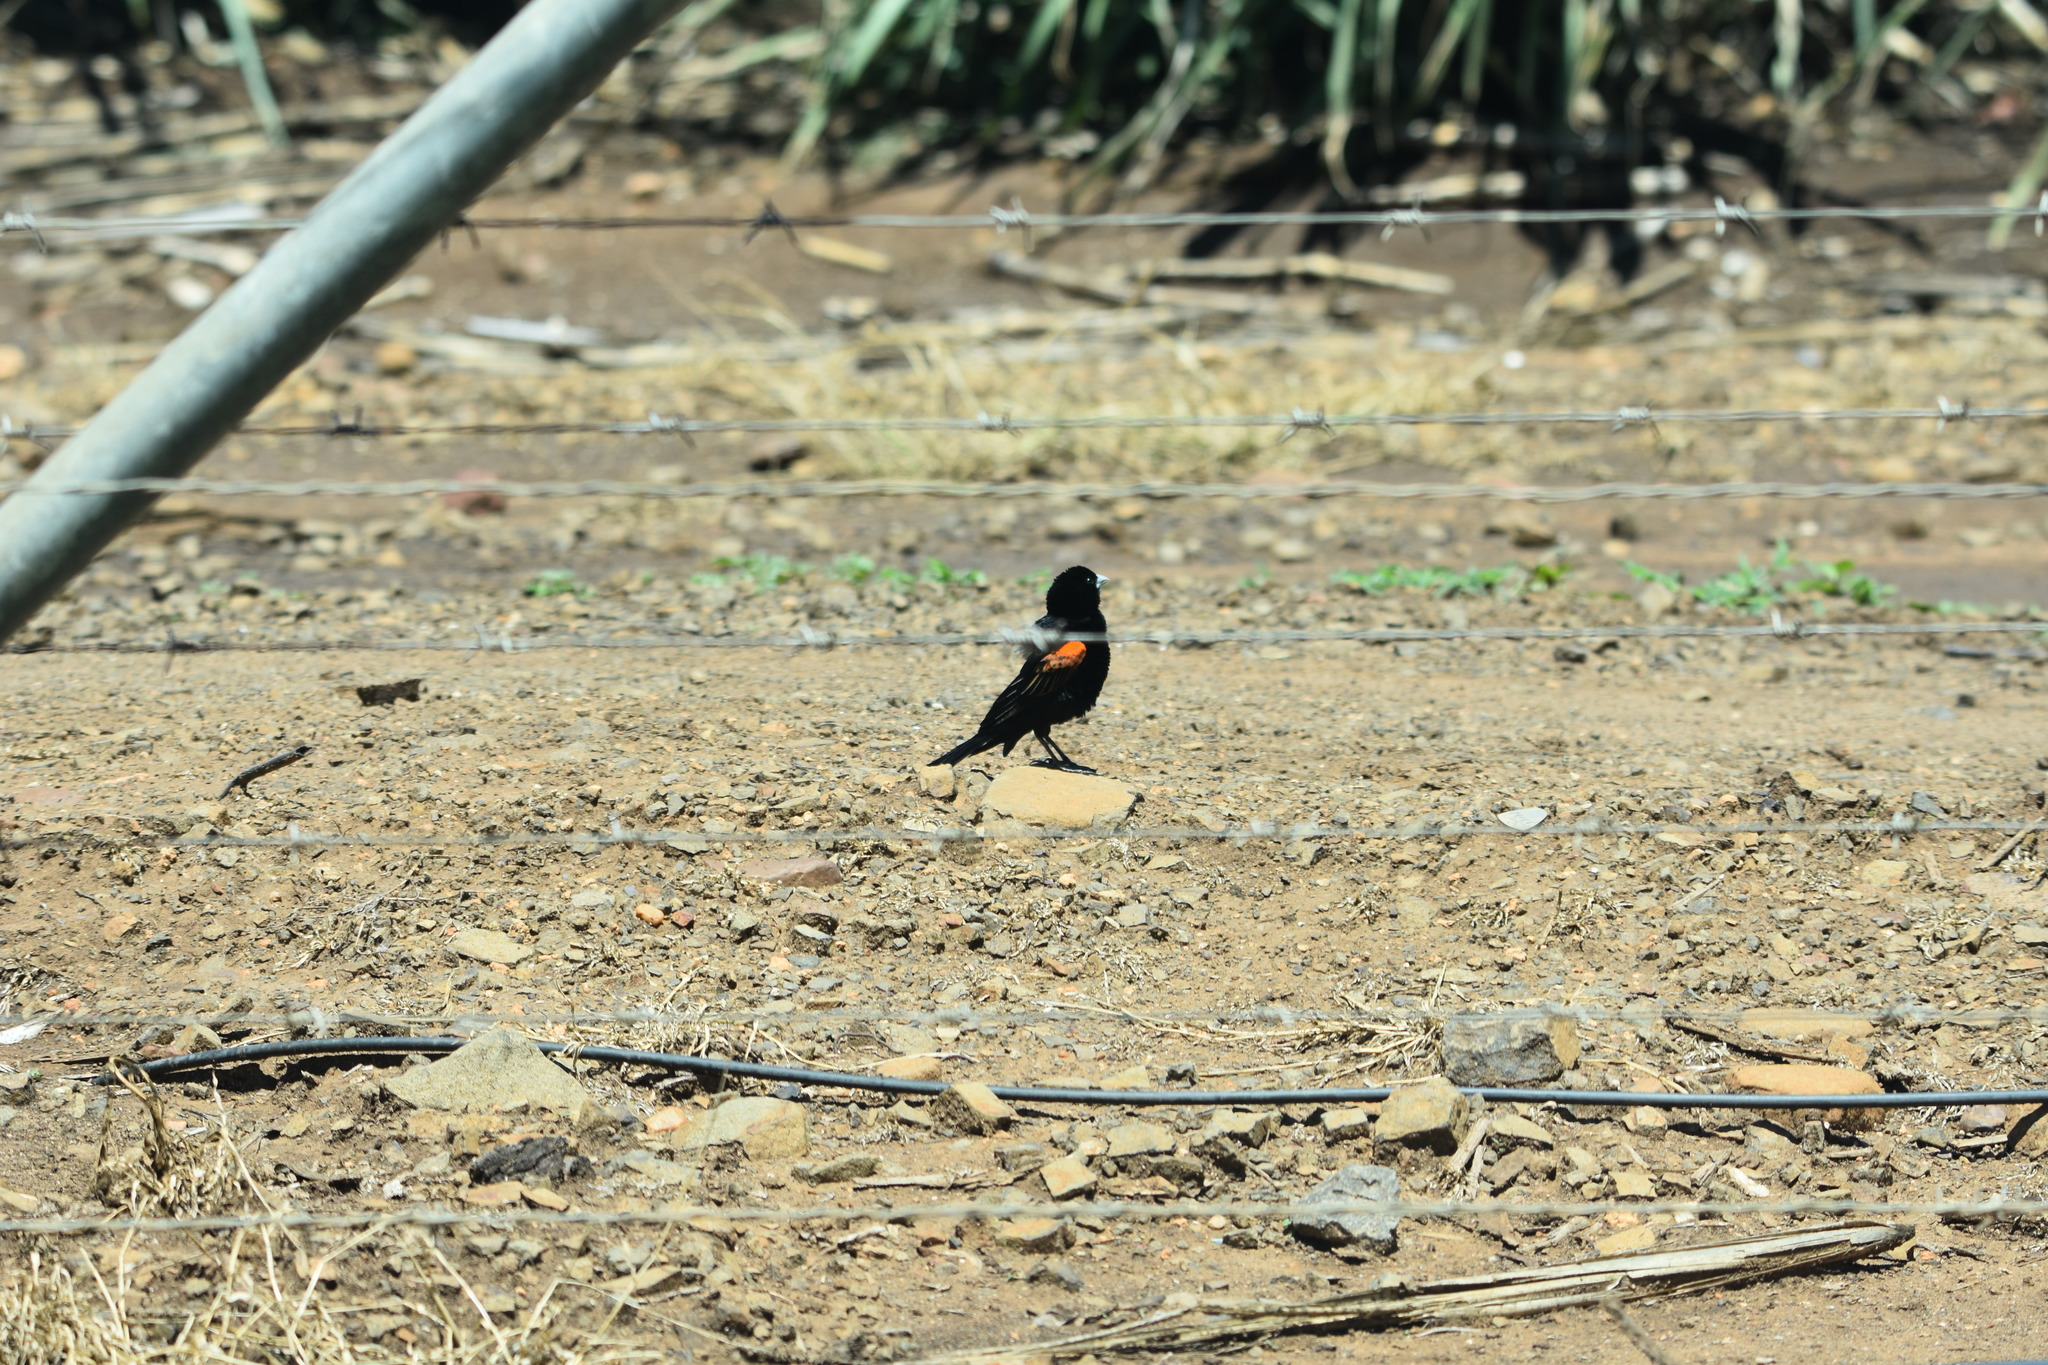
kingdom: Animalia
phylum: Chordata
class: Aves
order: Passeriformes
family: Ploceidae
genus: Euplectes
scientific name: Euplectes axillaris
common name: Fan-tailed widowbird
